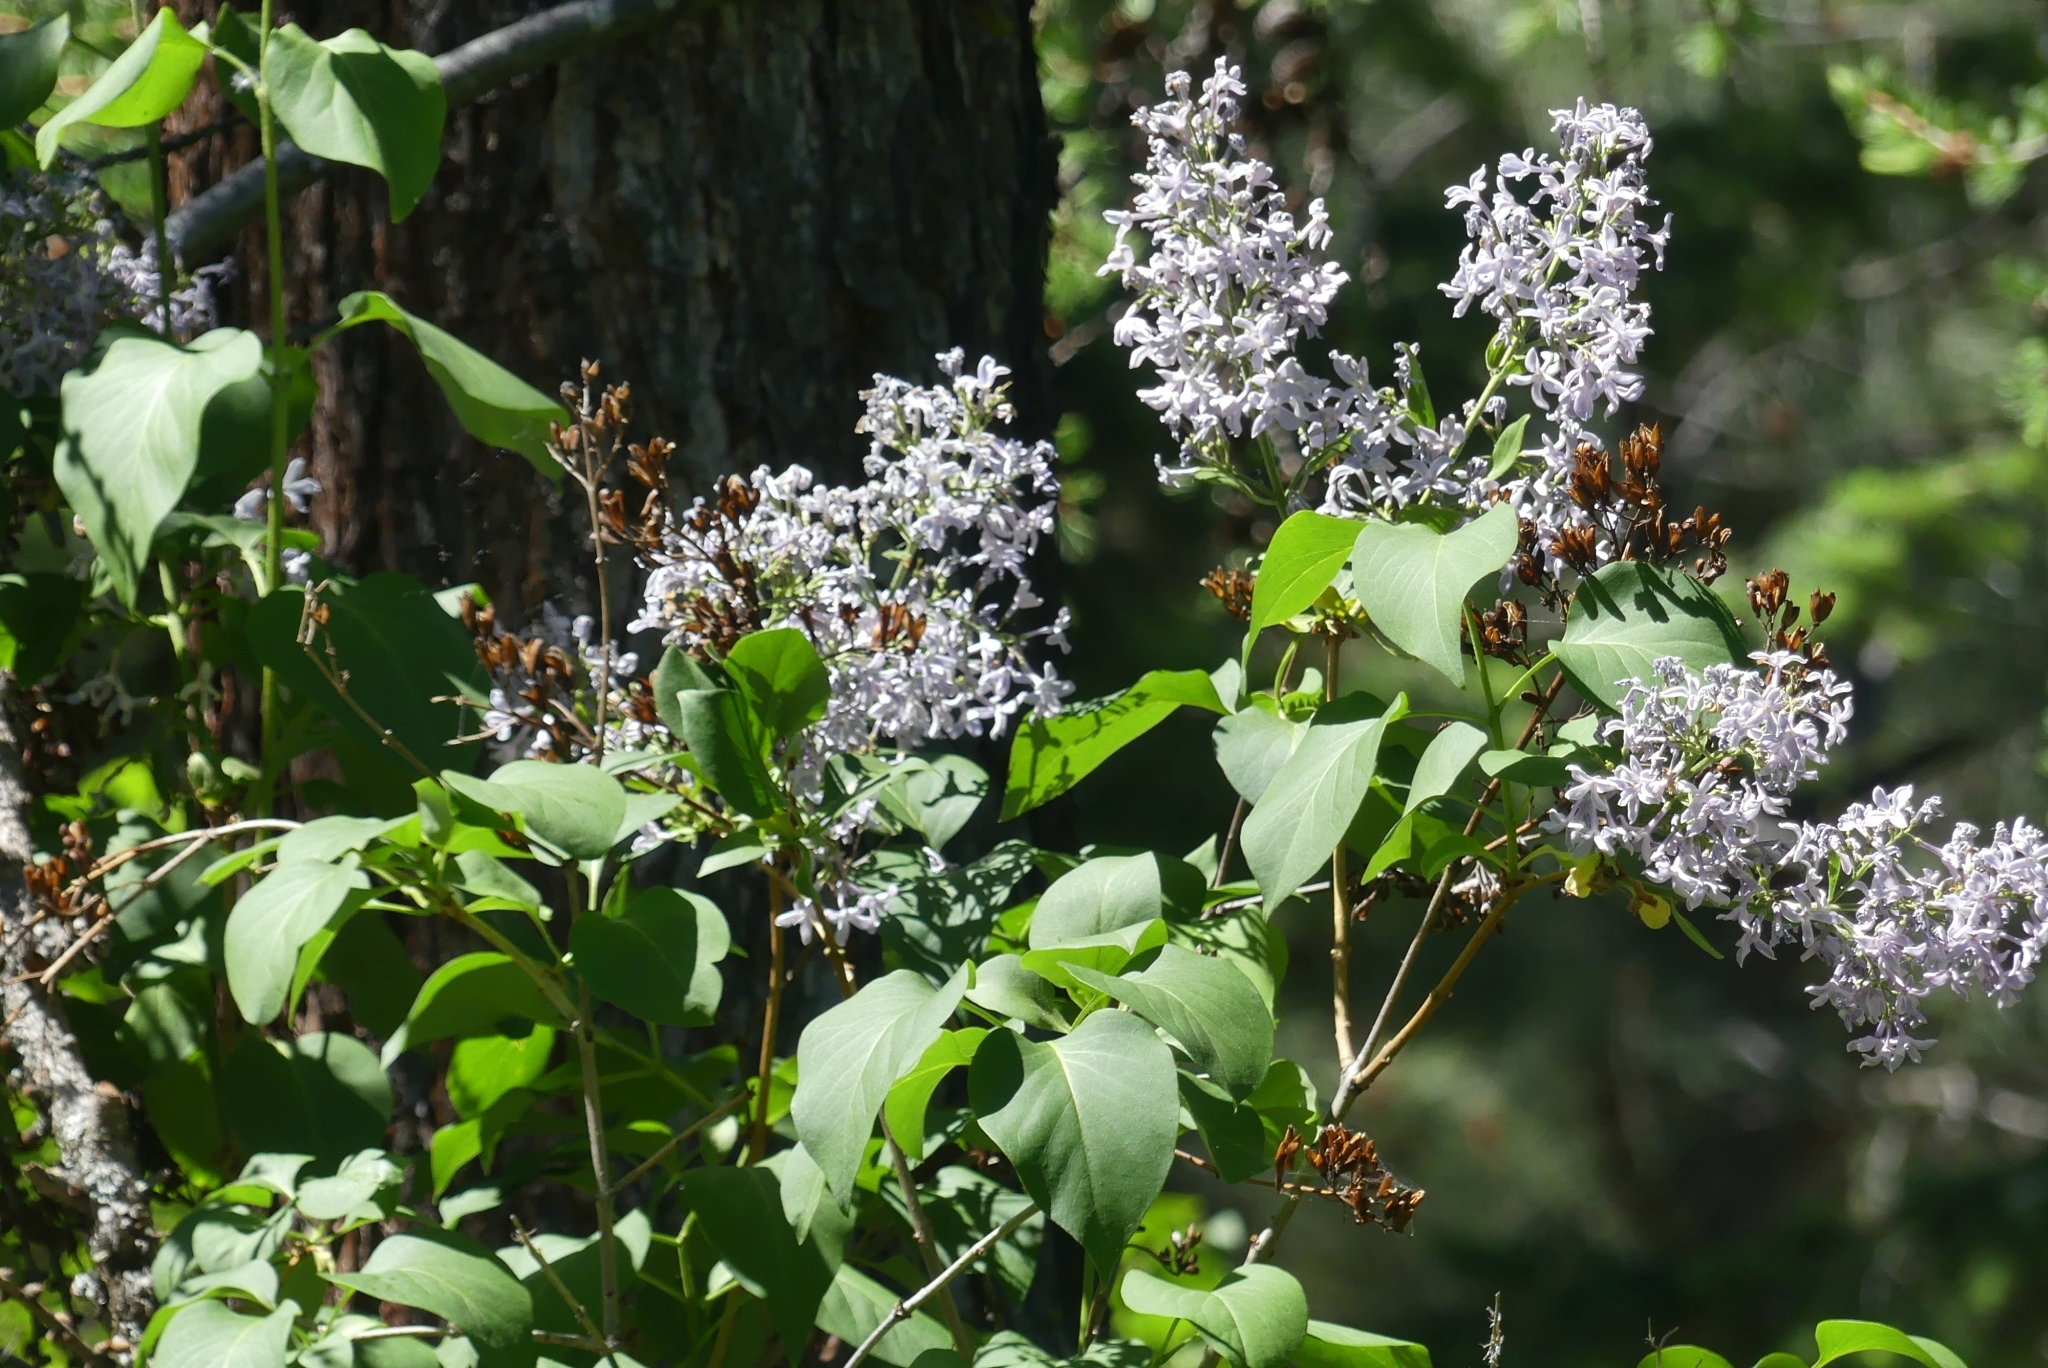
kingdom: Plantae
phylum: Tracheophyta
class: Magnoliopsida
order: Lamiales
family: Oleaceae
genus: Syringa
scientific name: Syringa vulgaris
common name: Common lilac
